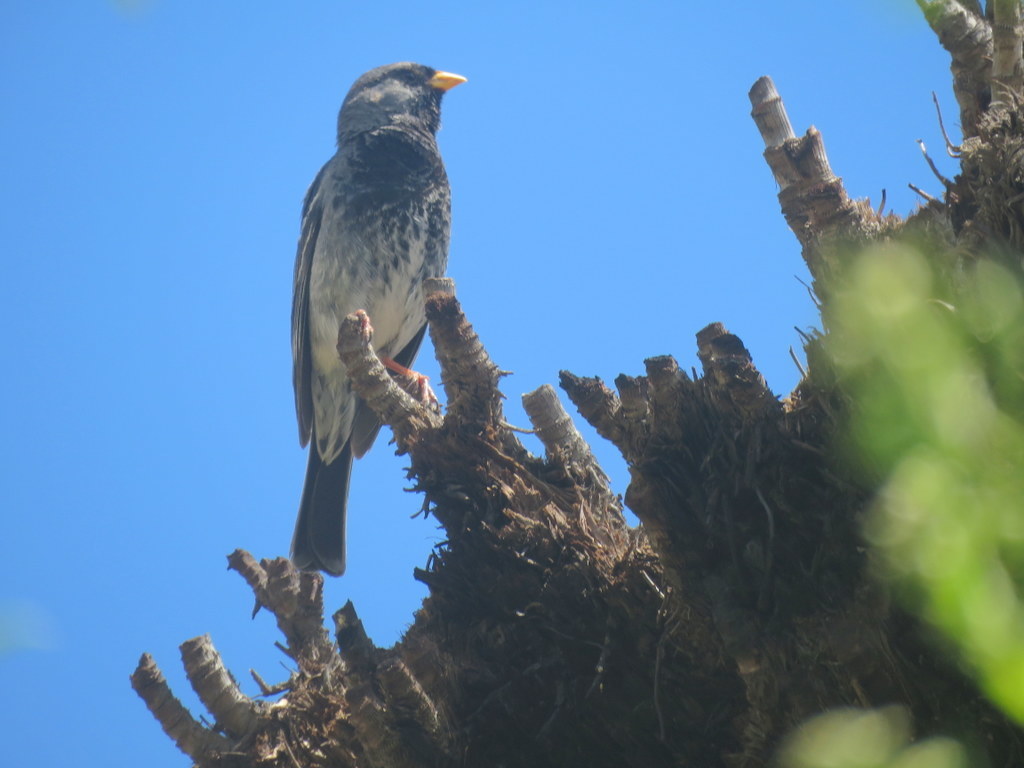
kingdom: Animalia
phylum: Chordata
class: Aves
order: Passeriformes
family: Thraupidae
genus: Rhopospina
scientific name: Rhopospina fruticeti
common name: Mourning sierra finch
